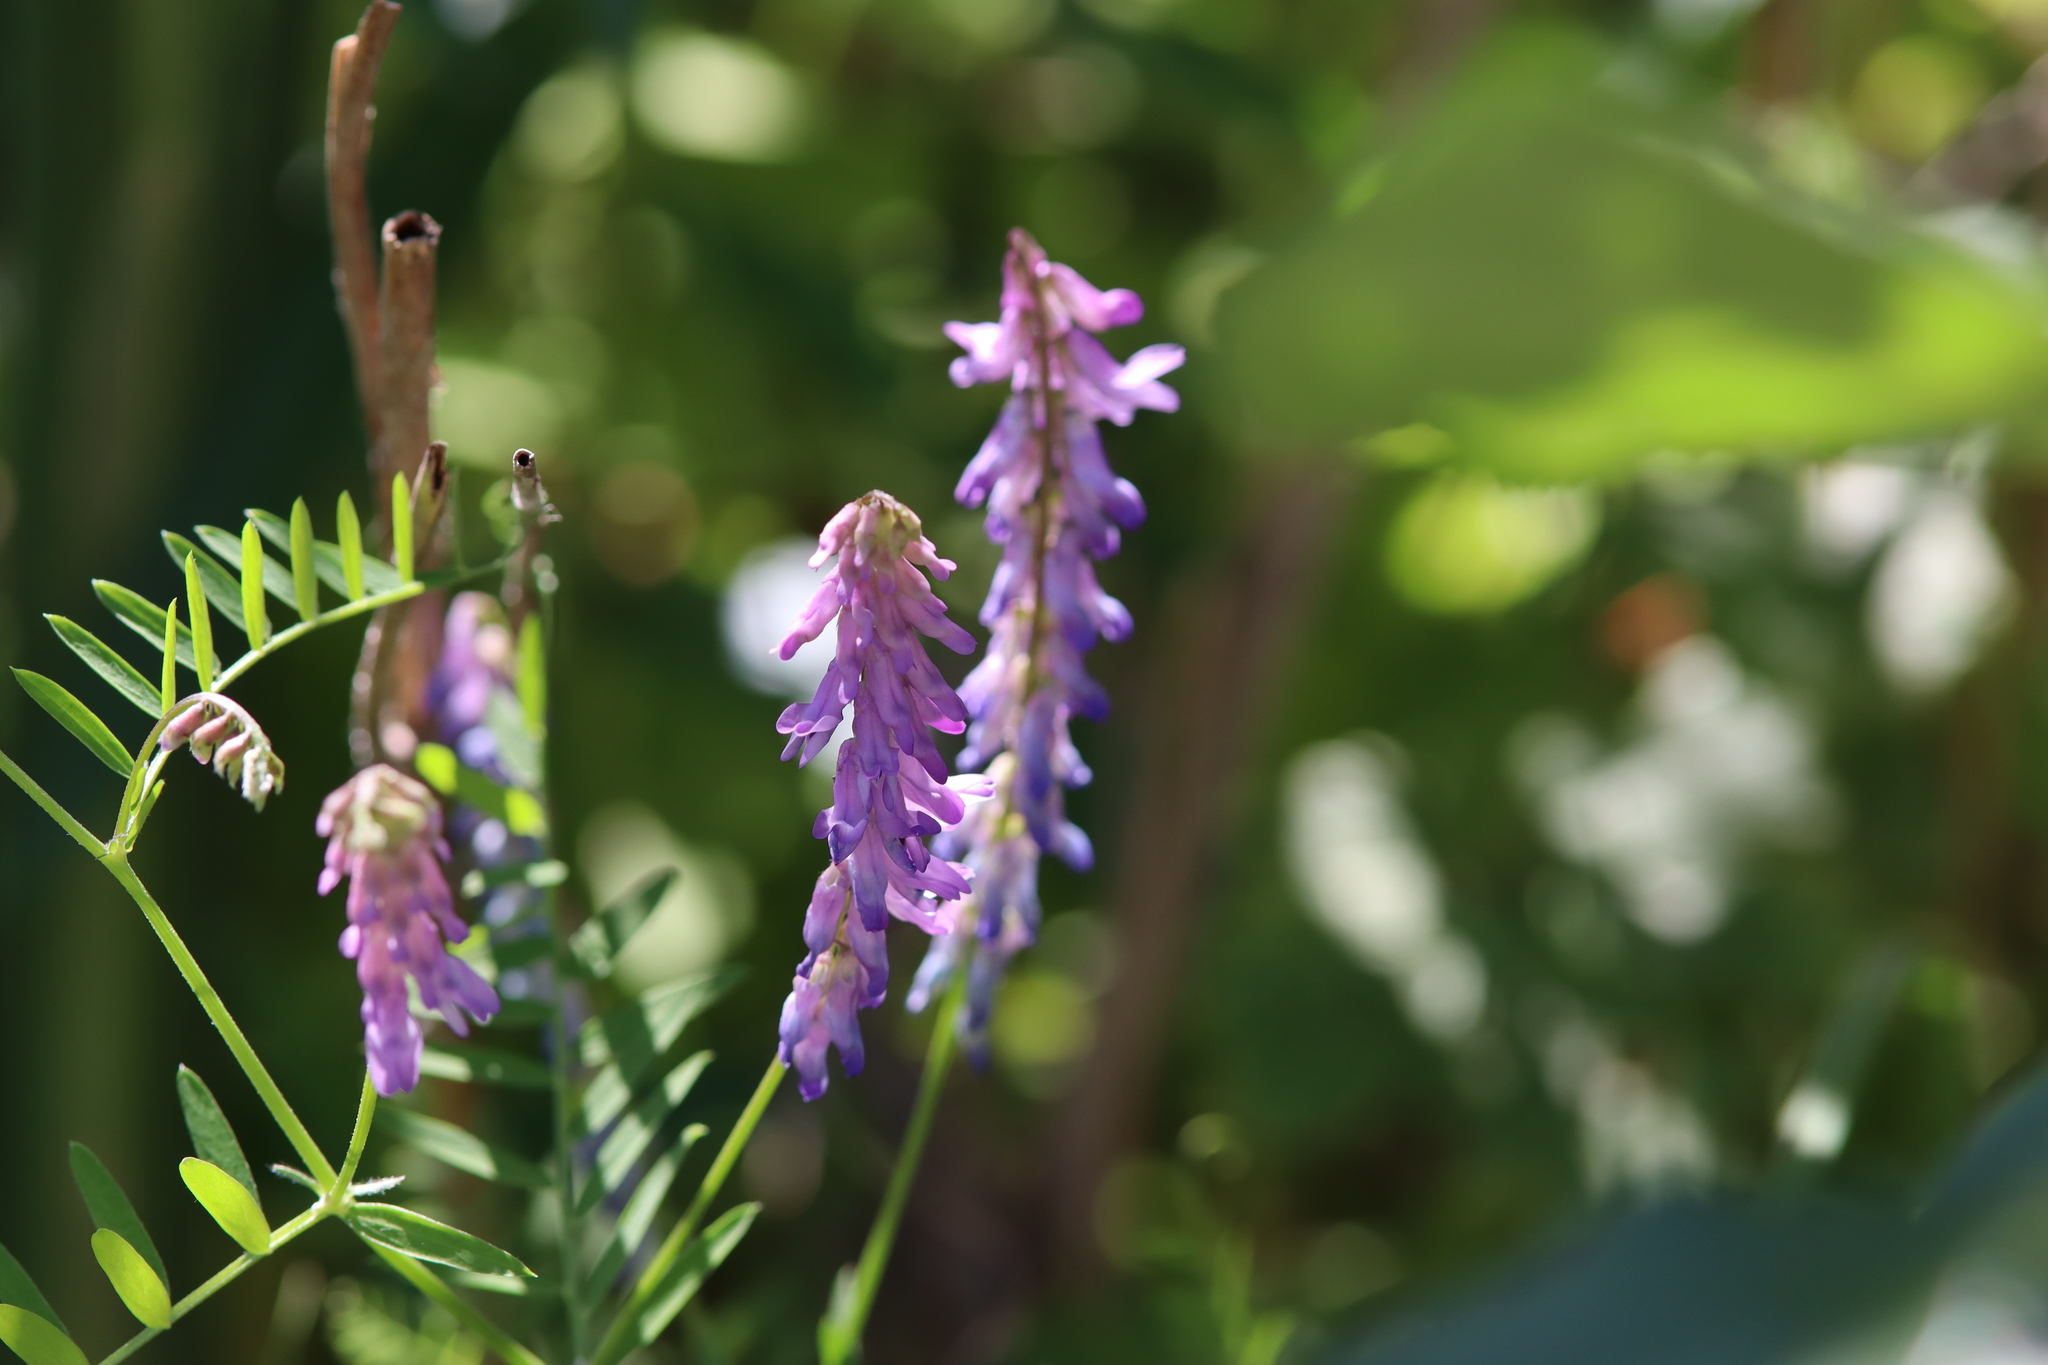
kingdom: Plantae
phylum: Tracheophyta
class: Magnoliopsida
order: Fabales
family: Fabaceae
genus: Vicia
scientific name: Vicia cracca
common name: Bird vetch
